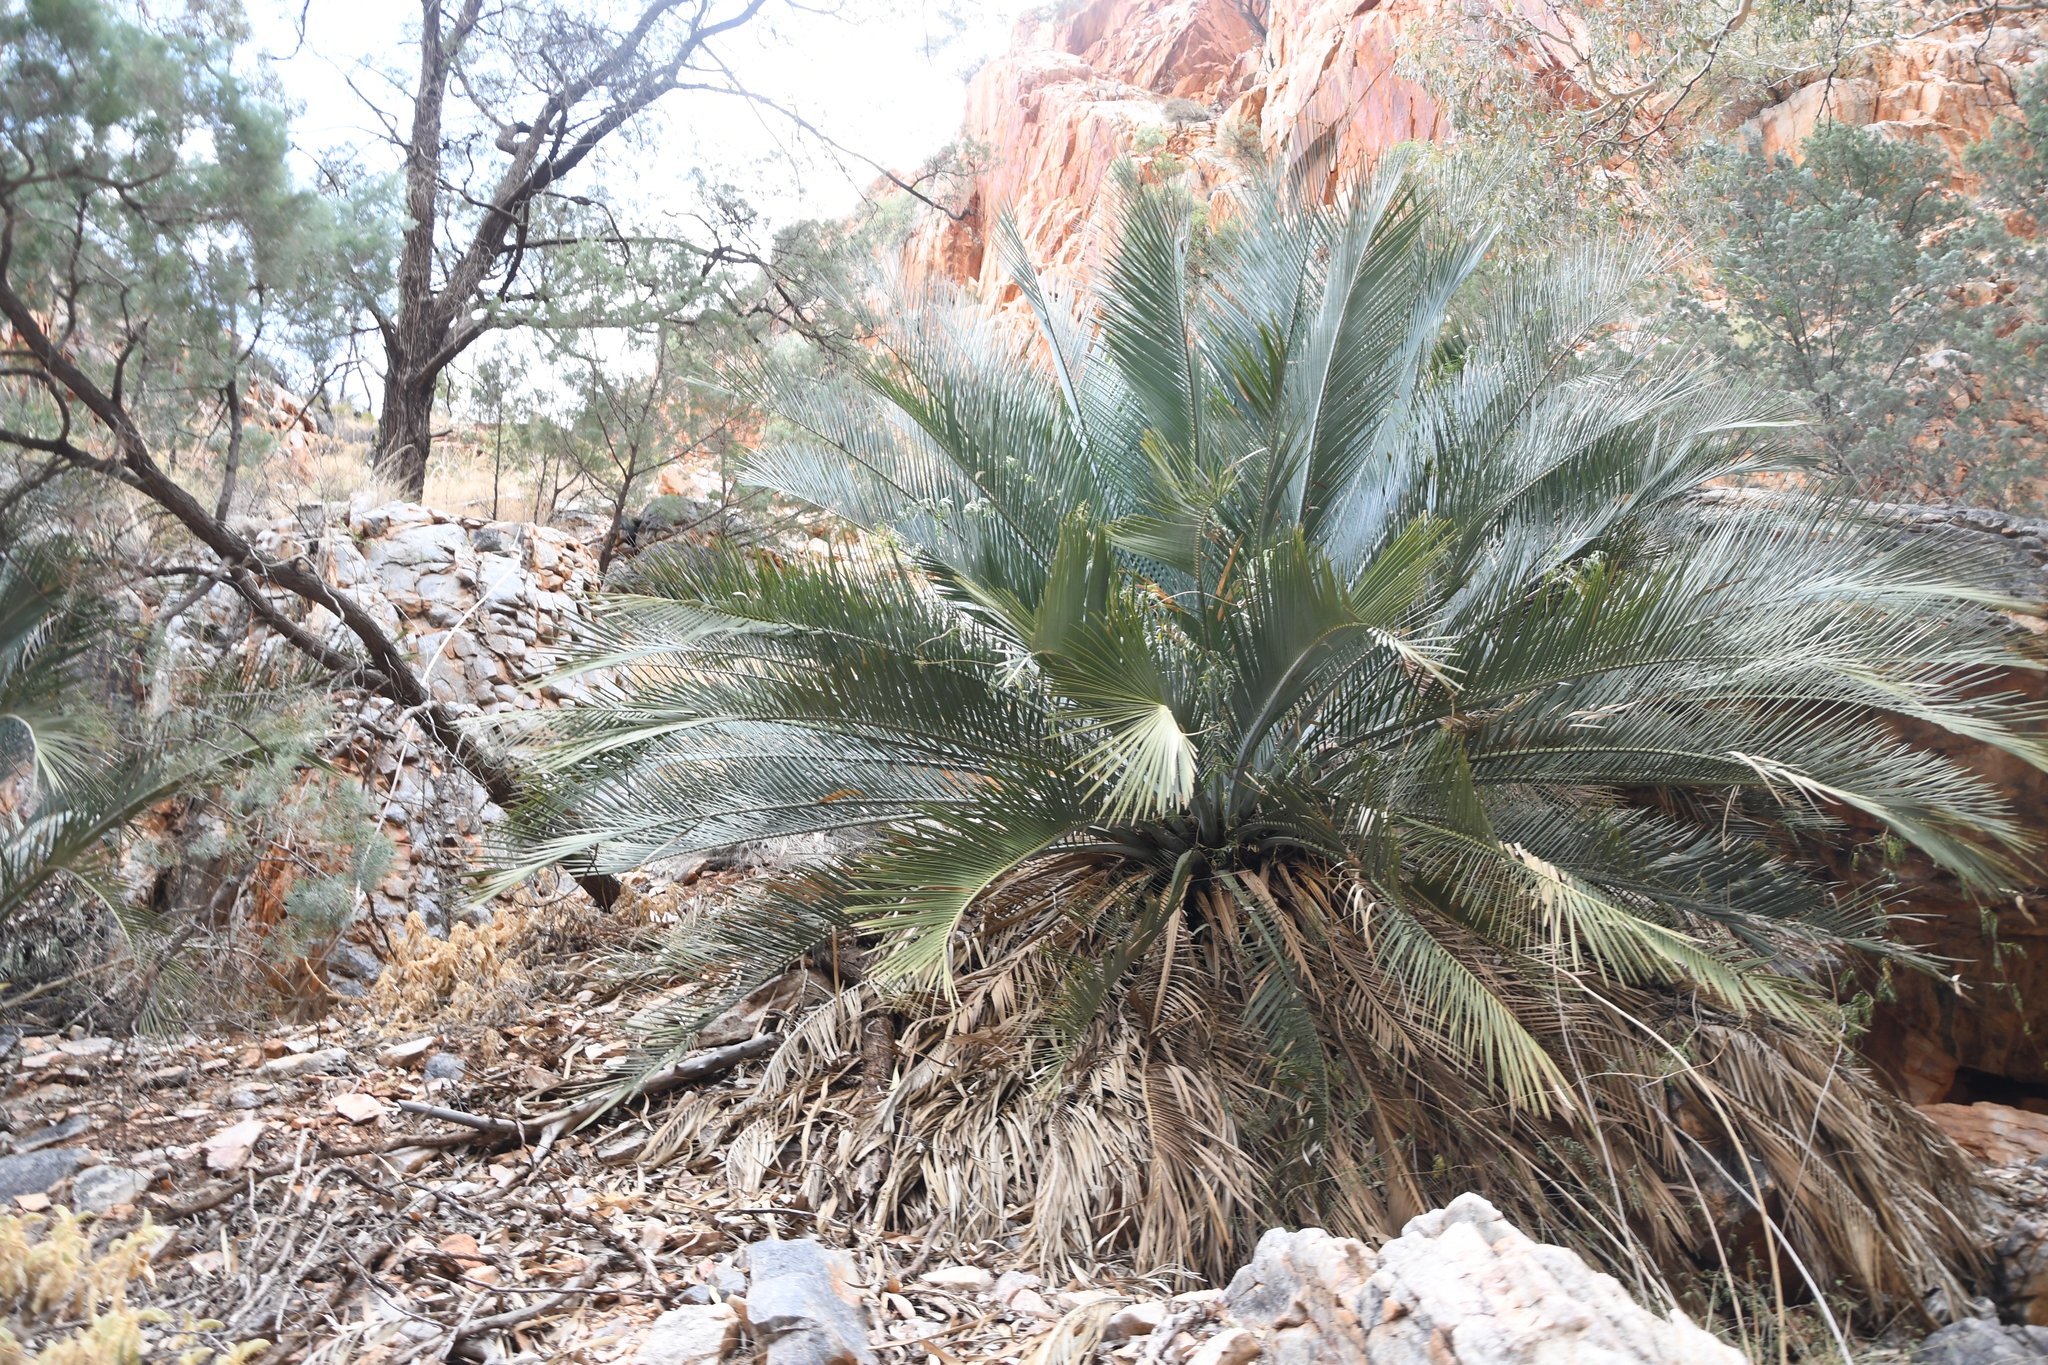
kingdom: Plantae
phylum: Tracheophyta
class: Cycadopsida
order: Cycadales
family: Zamiaceae
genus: Macrozamia
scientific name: Macrozamia macdonnellii
